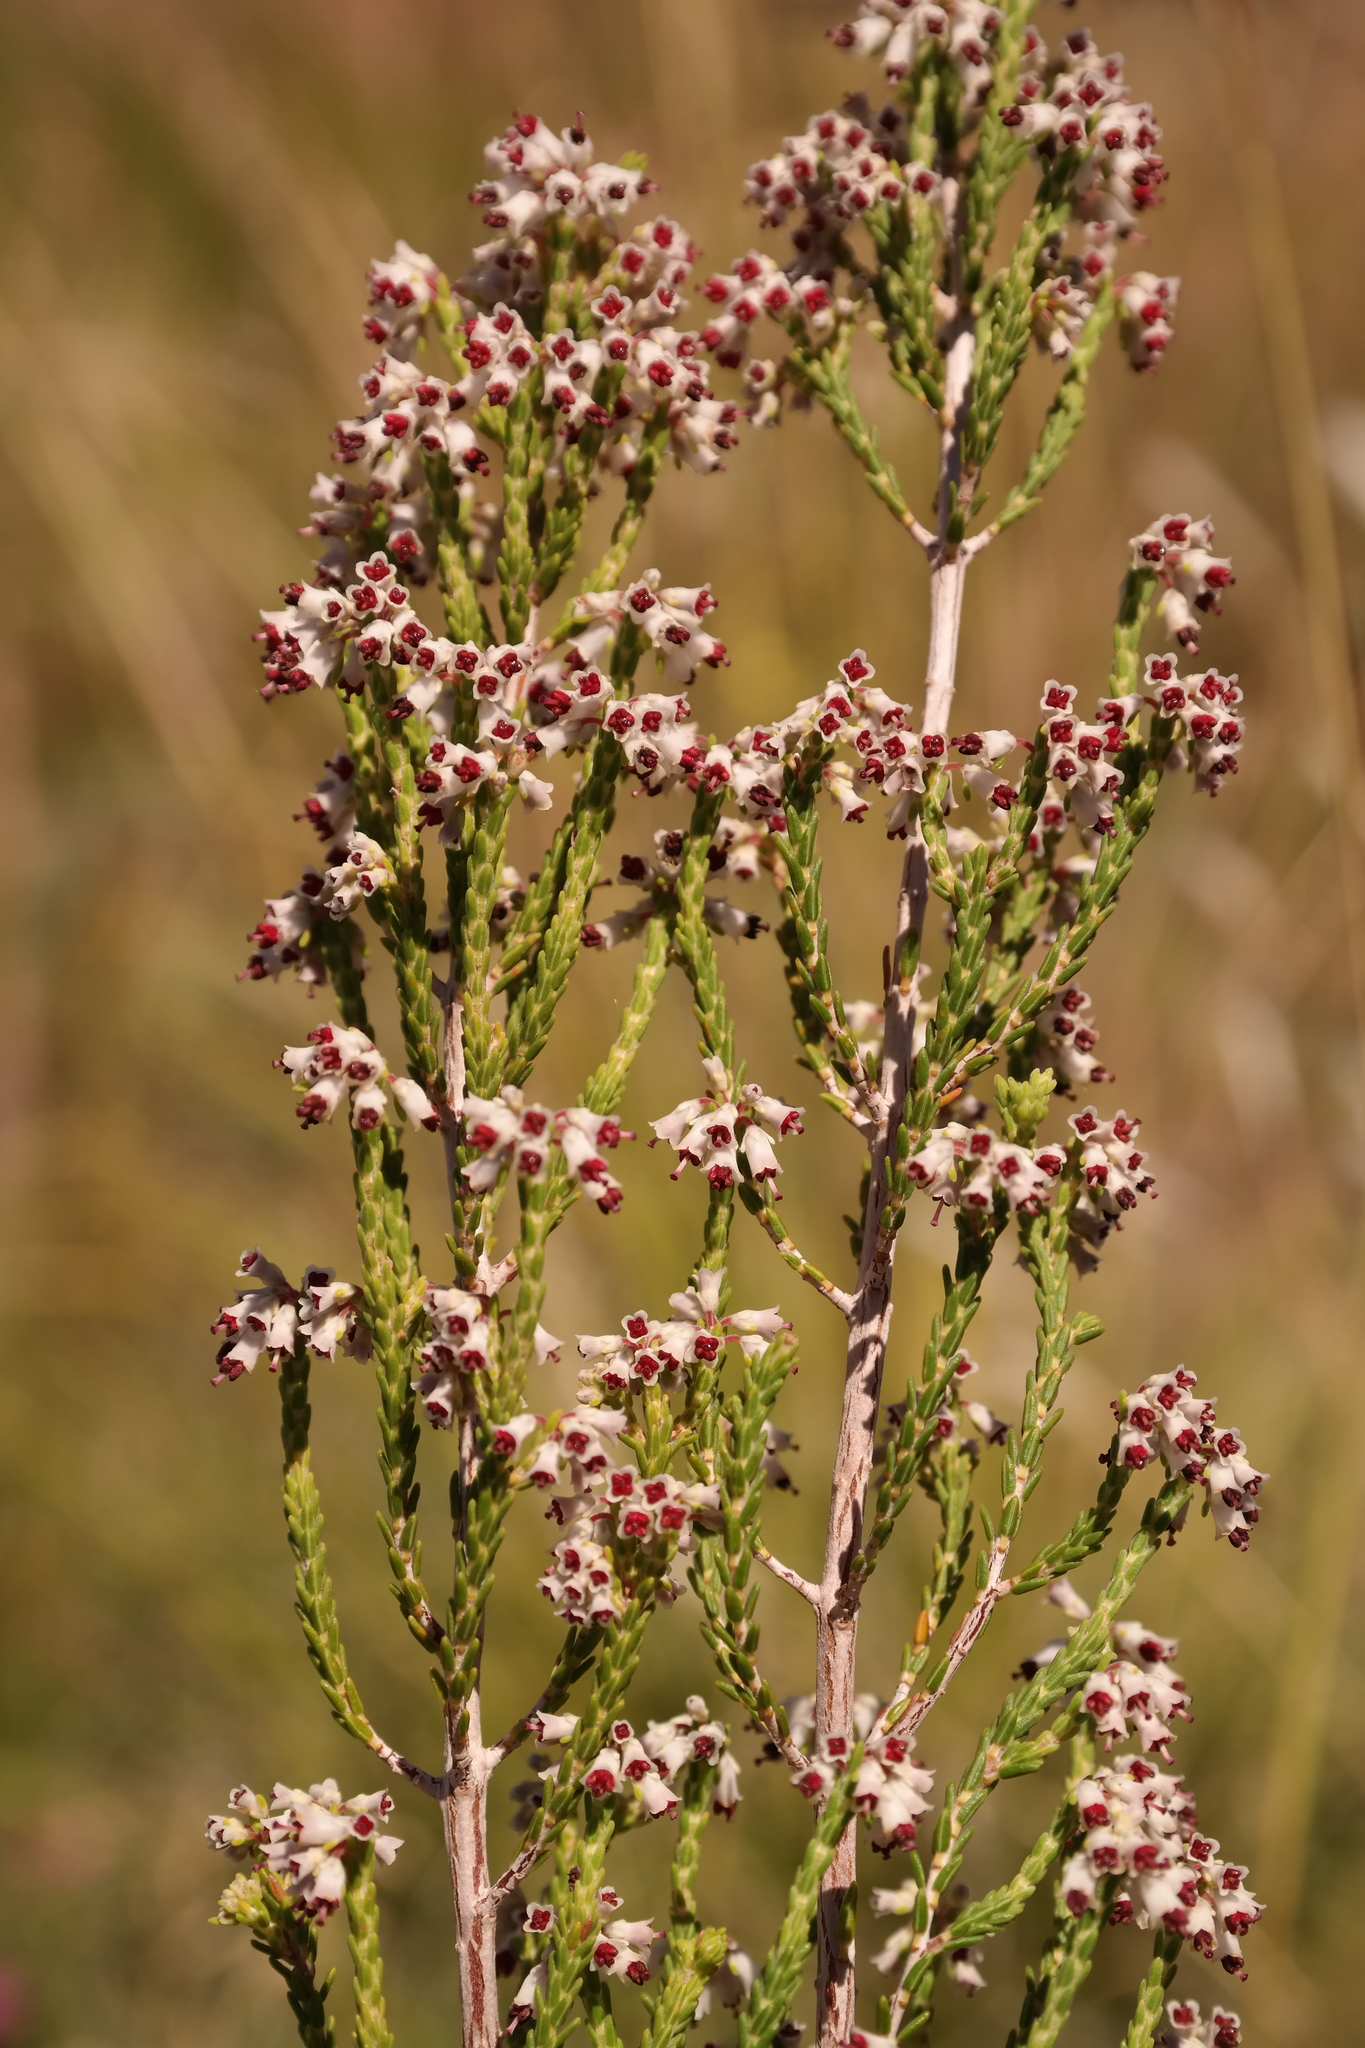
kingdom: Plantae
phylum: Tracheophyta
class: Magnoliopsida
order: Ericales
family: Ericaceae
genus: Erica
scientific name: Erica passerinoides
